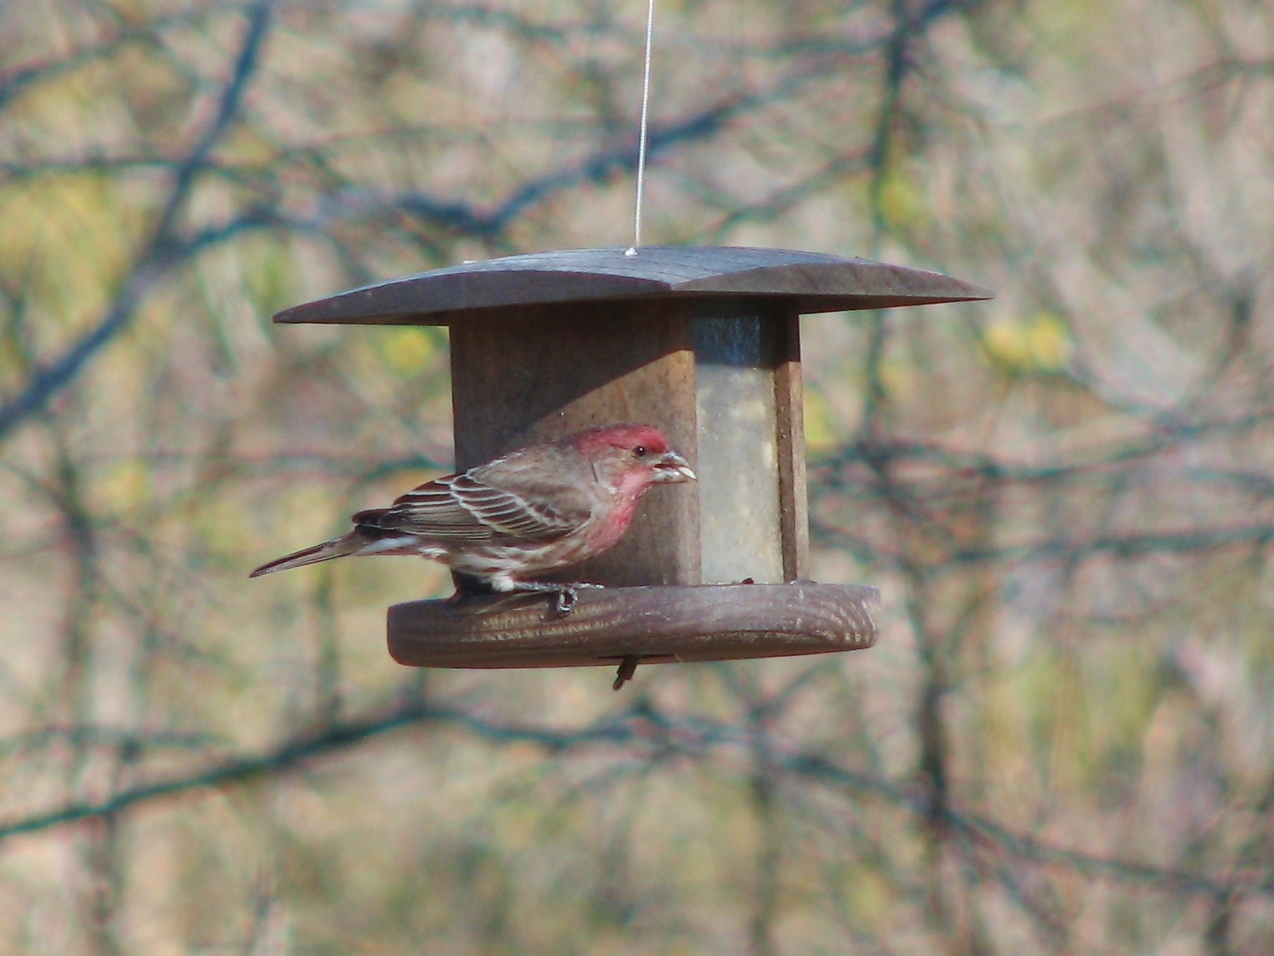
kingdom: Animalia
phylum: Chordata
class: Aves
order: Passeriformes
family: Fringillidae
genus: Haemorhous
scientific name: Haemorhous mexicanus
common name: House finch
